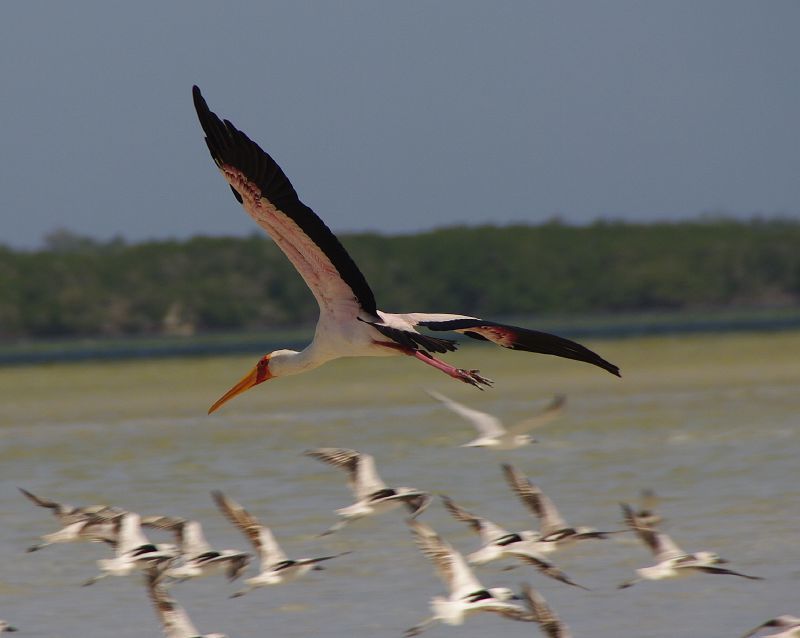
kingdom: Animalia
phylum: Chordata
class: Aves
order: Ciconiiformes
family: Ciconiidae
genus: Mycteria
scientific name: Mycteria ibis
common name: Yellow-billed stork
